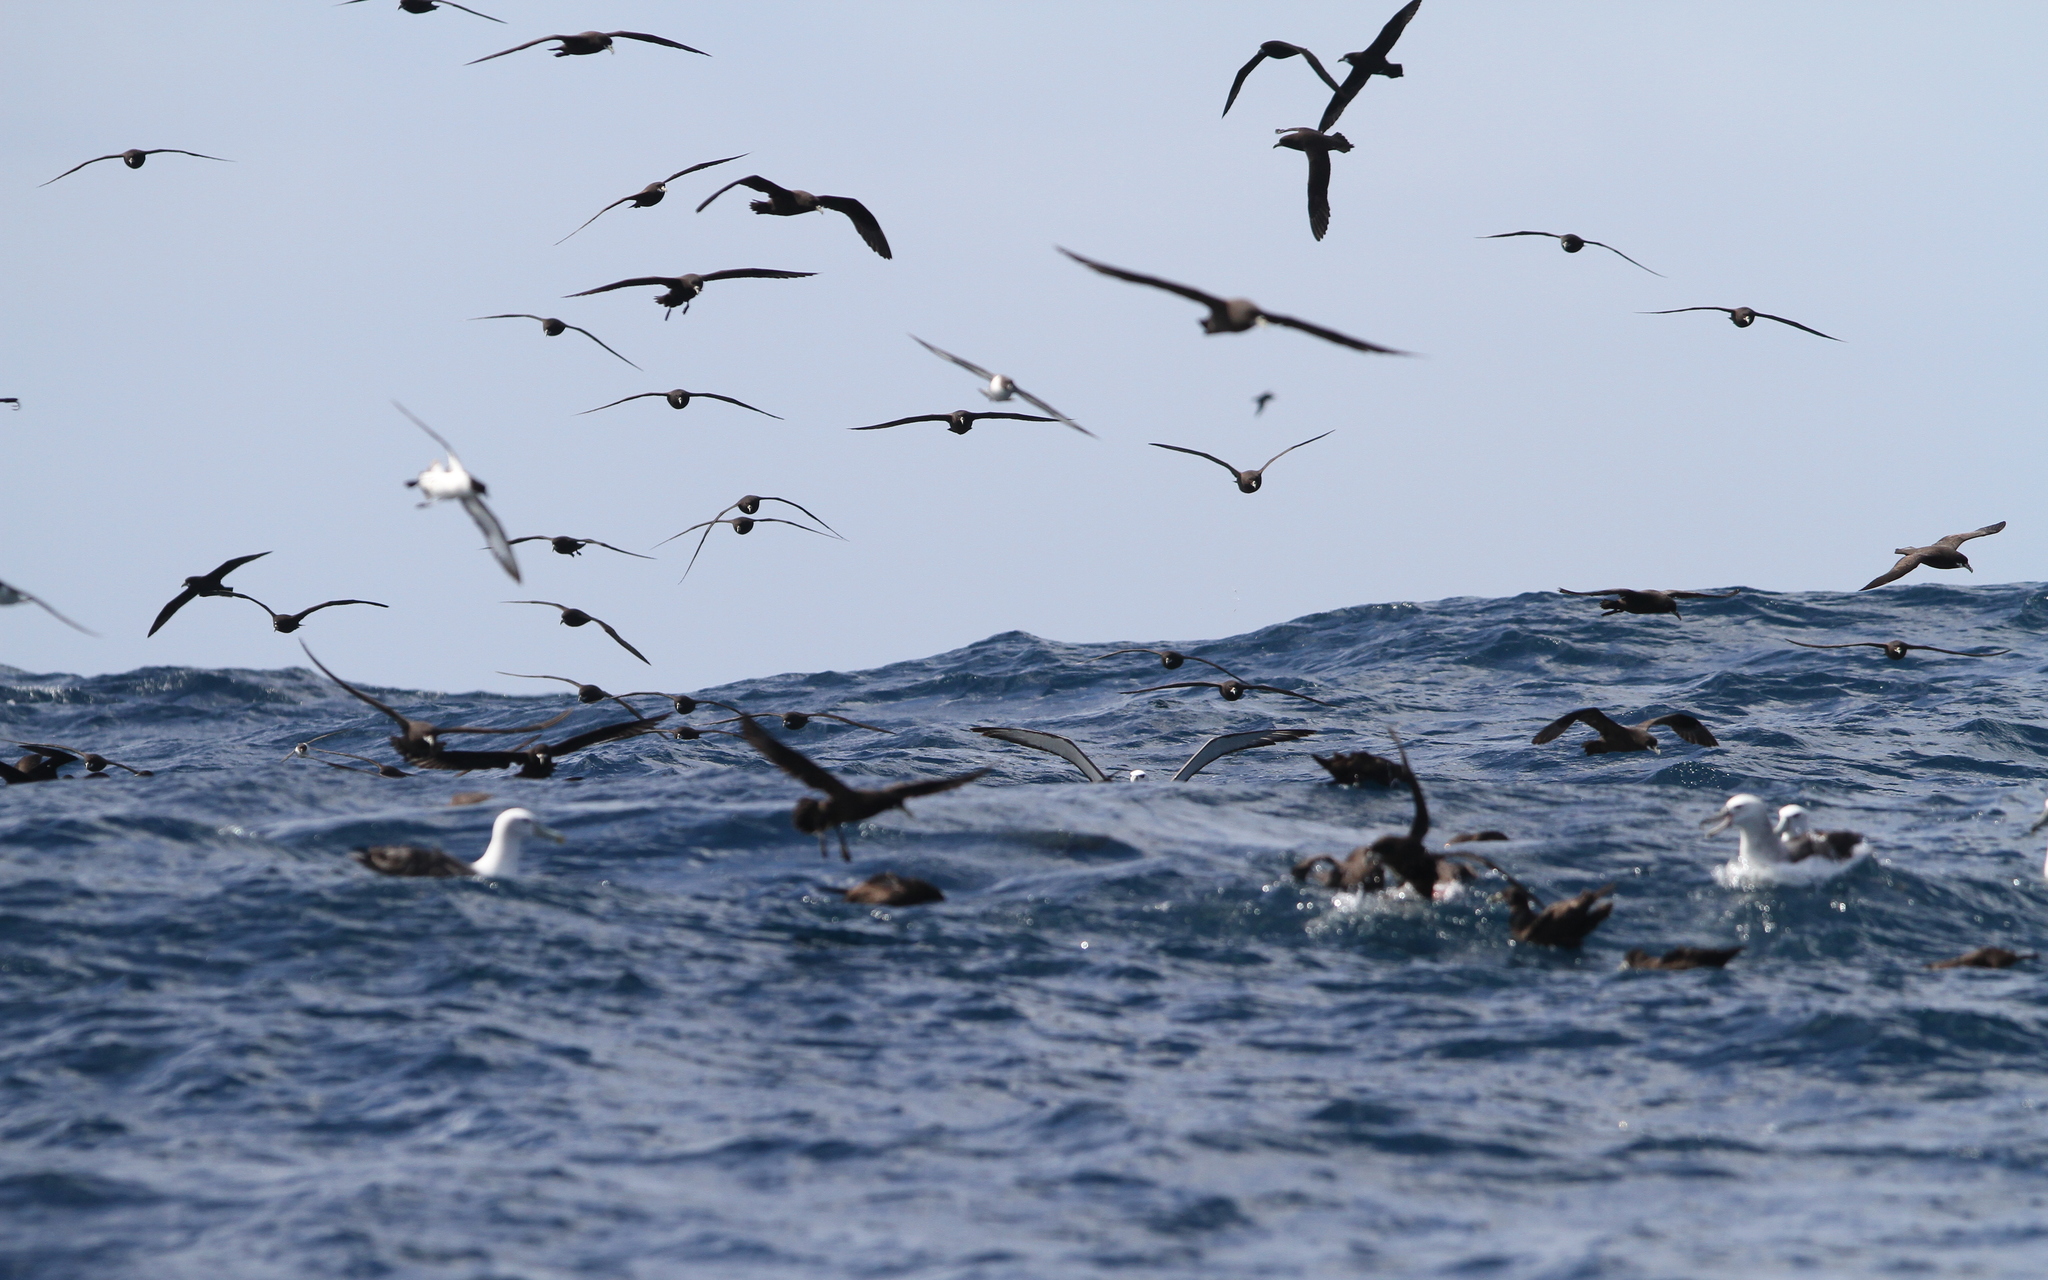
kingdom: Animalia
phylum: Chordata
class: Aves
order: Procellariiformes
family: Procellariidae
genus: Procellaria
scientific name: Procellaria aequinoctialis
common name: White-chinned petrel
